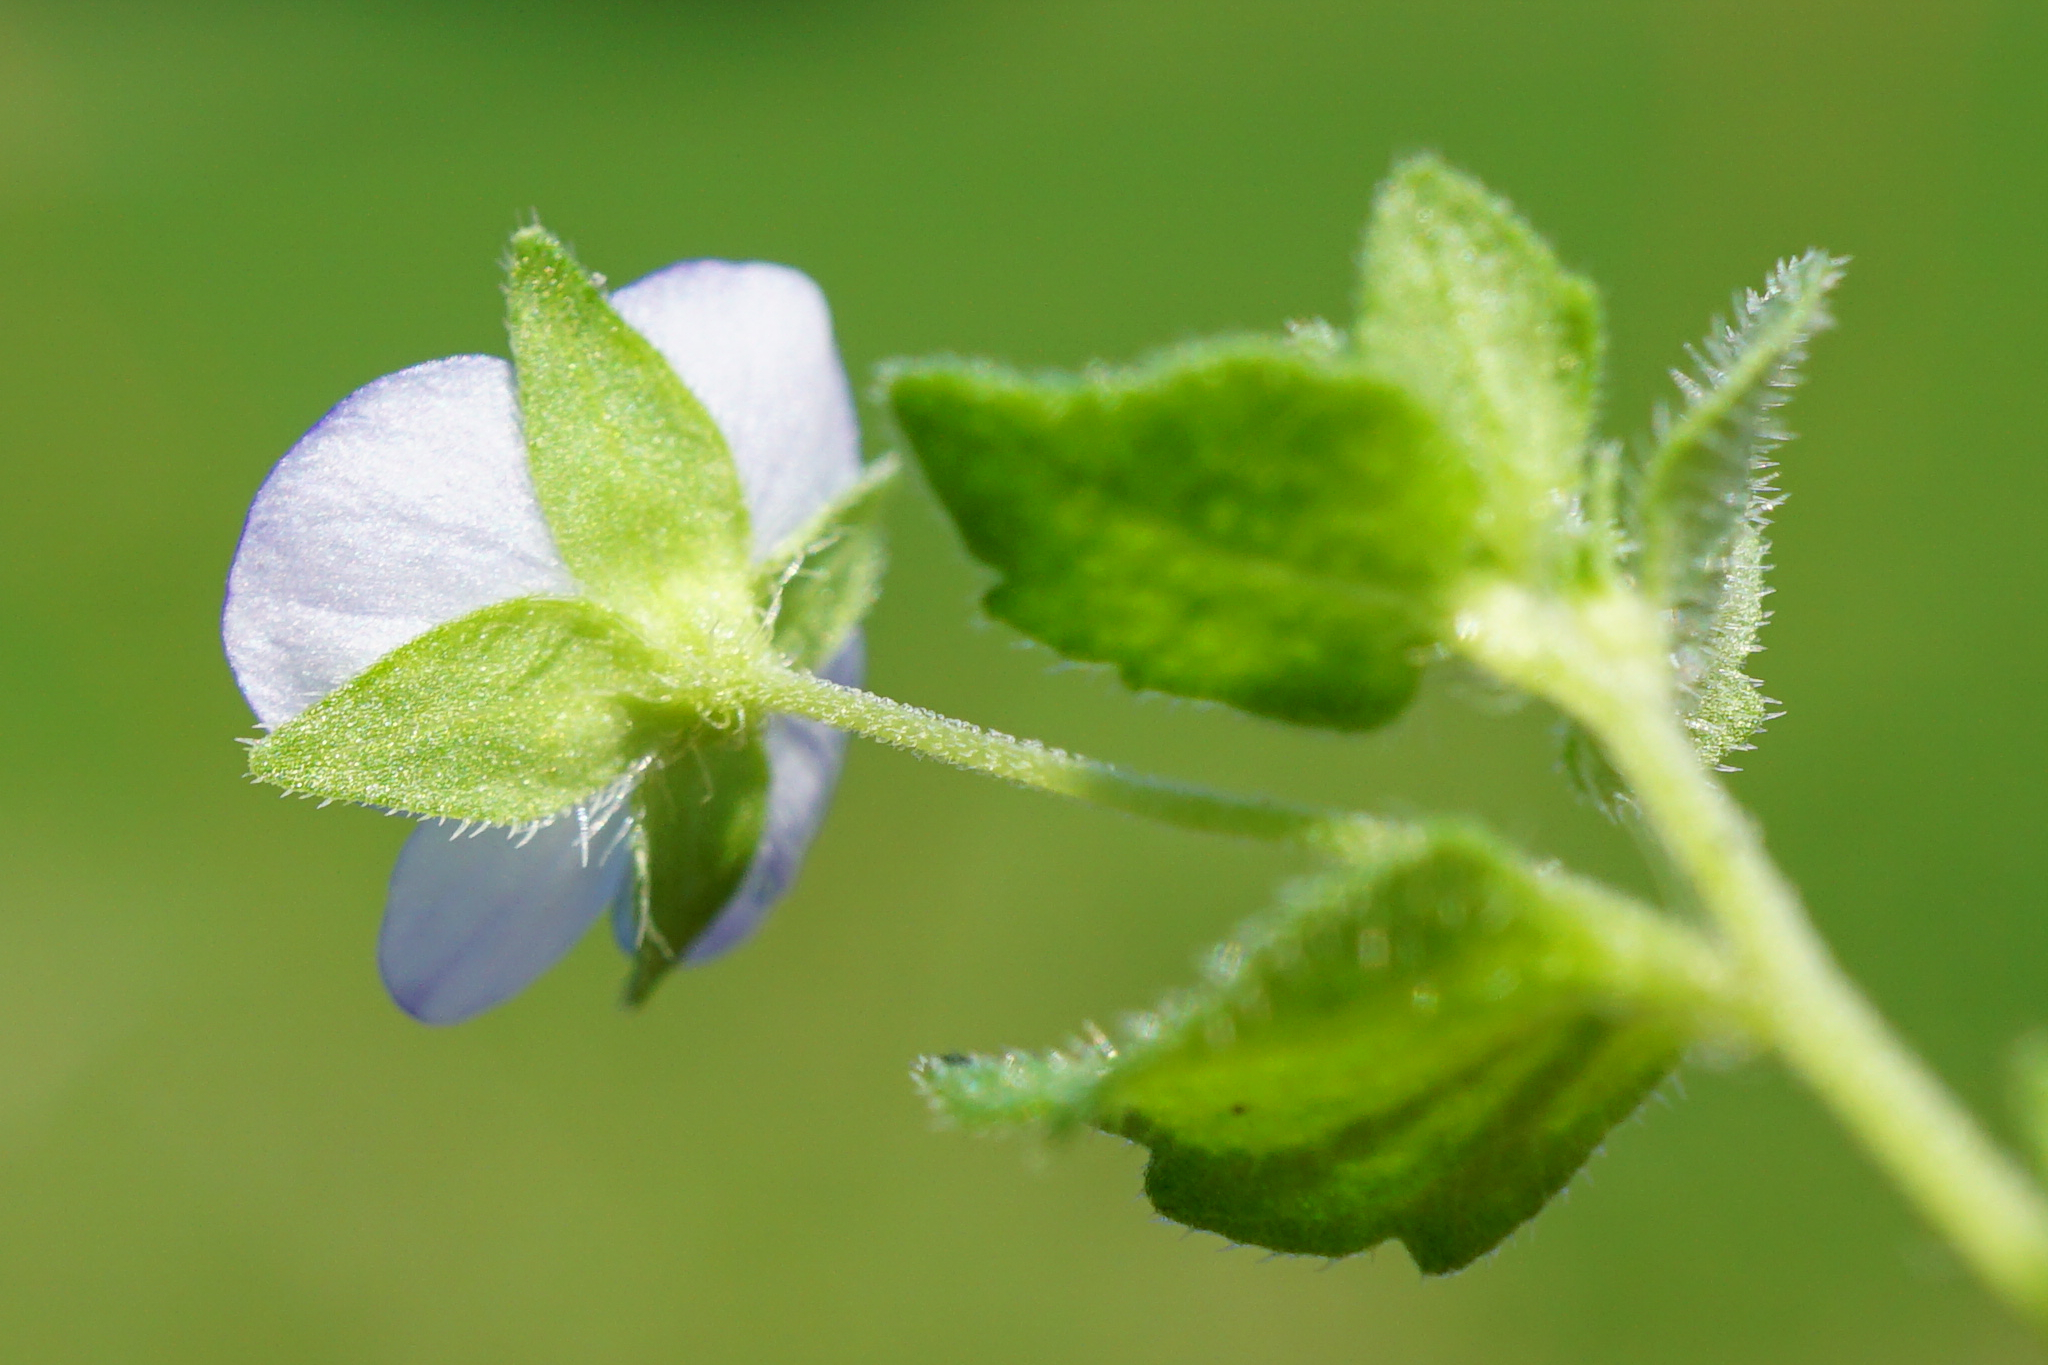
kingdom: Plantae
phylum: Tracheophyta
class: Magnoliopsida
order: Lamiales
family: Plantaginaceae
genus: Veronica
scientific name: Veronica persica
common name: Common field-speedwell
